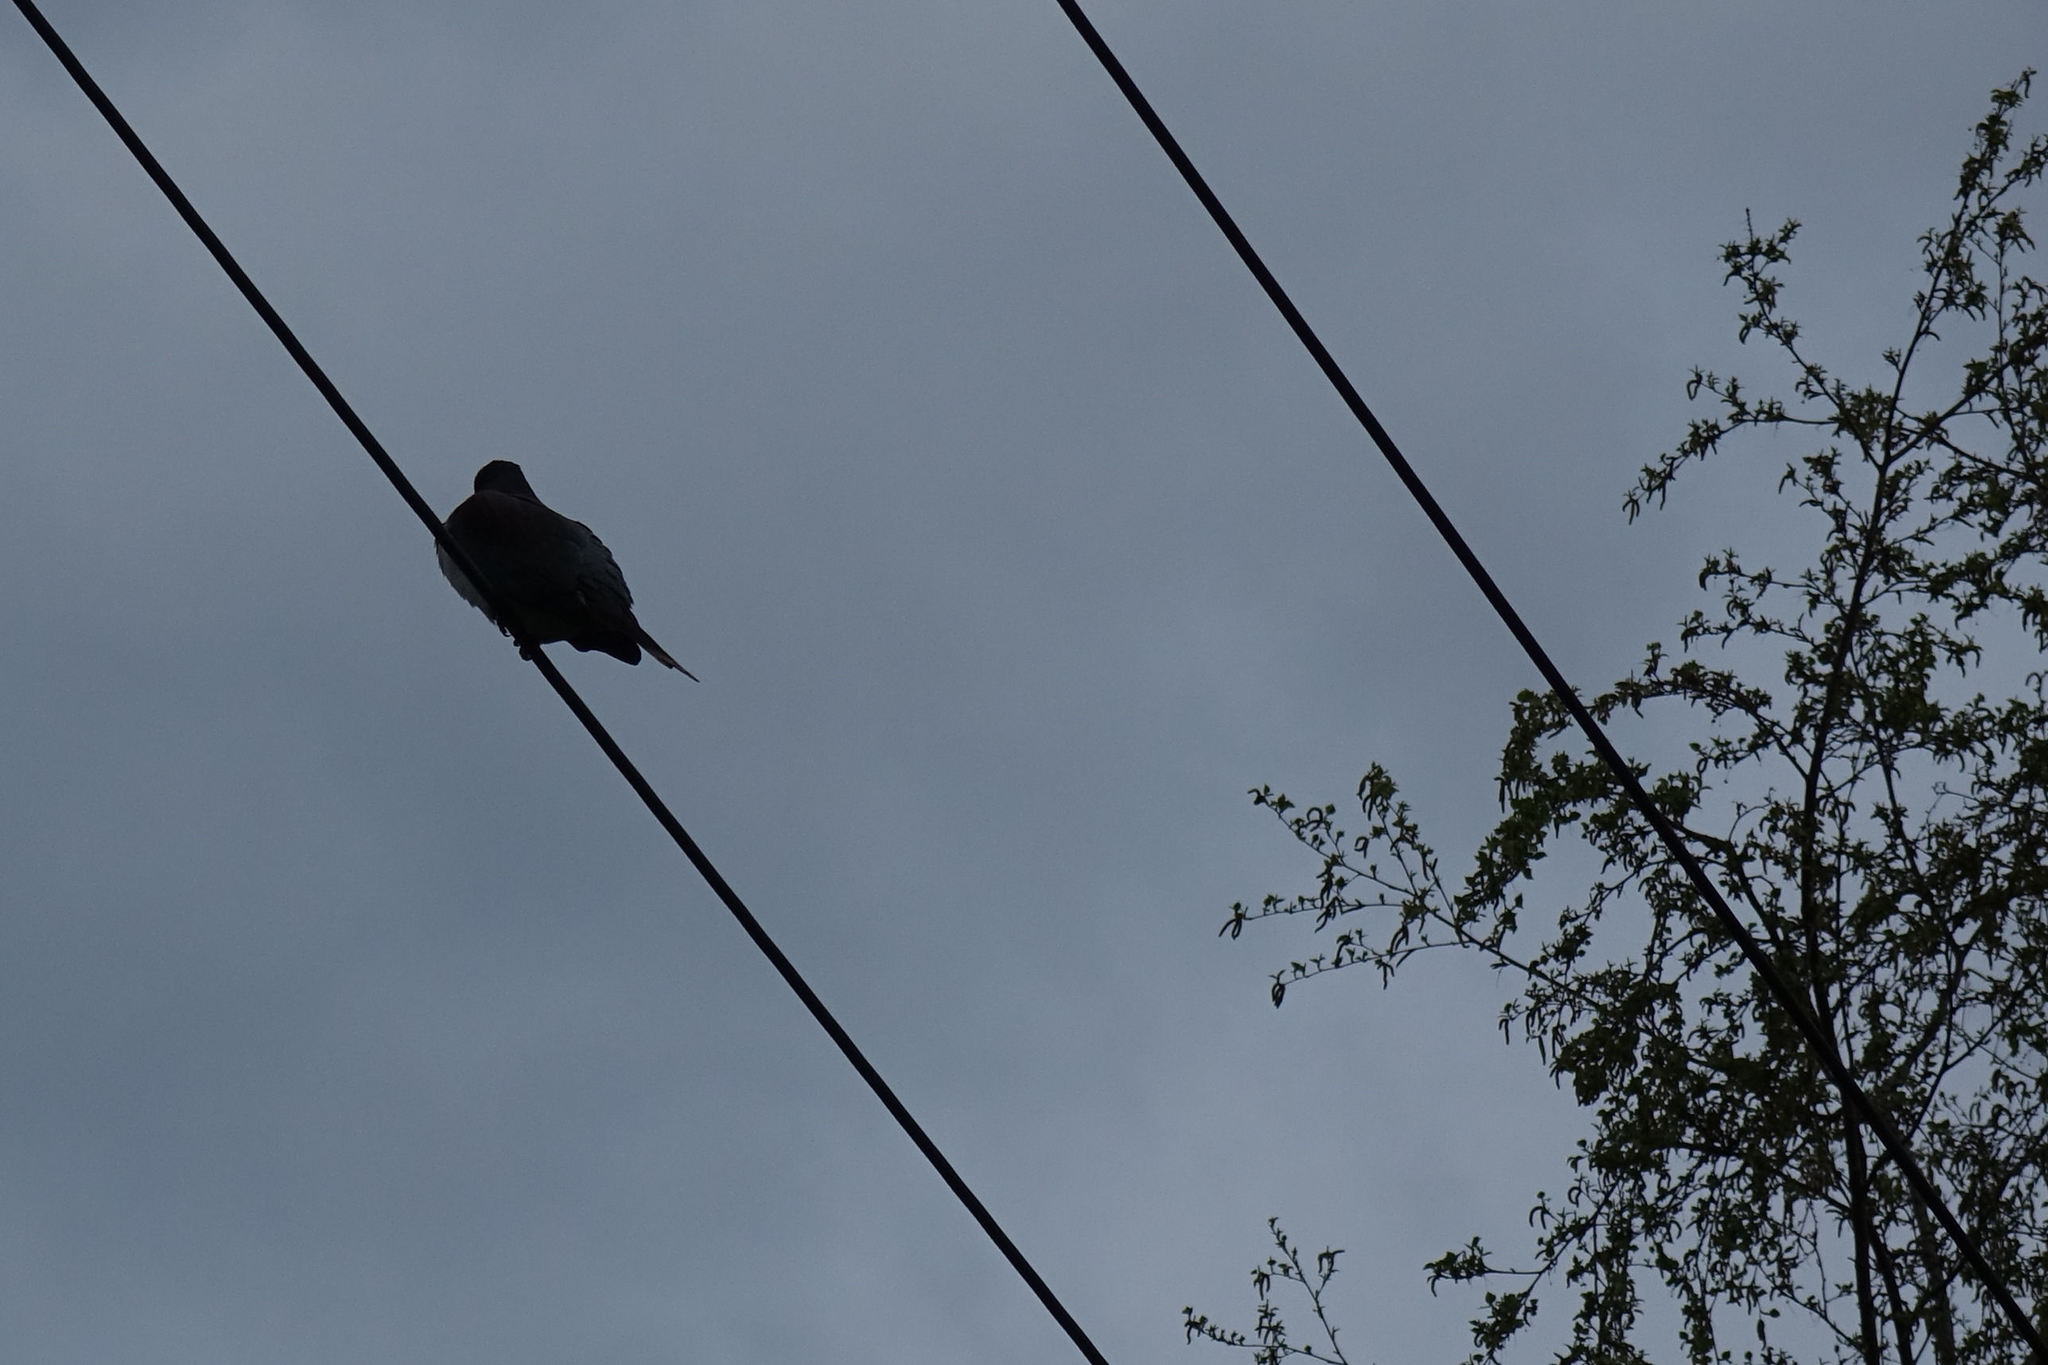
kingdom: Animalia
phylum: Chordata
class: Aves
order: Columbiformes
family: Columbidae
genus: Hemiphaga
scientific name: Hemiphaga novaeseelandiae
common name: New zealand pigeon
